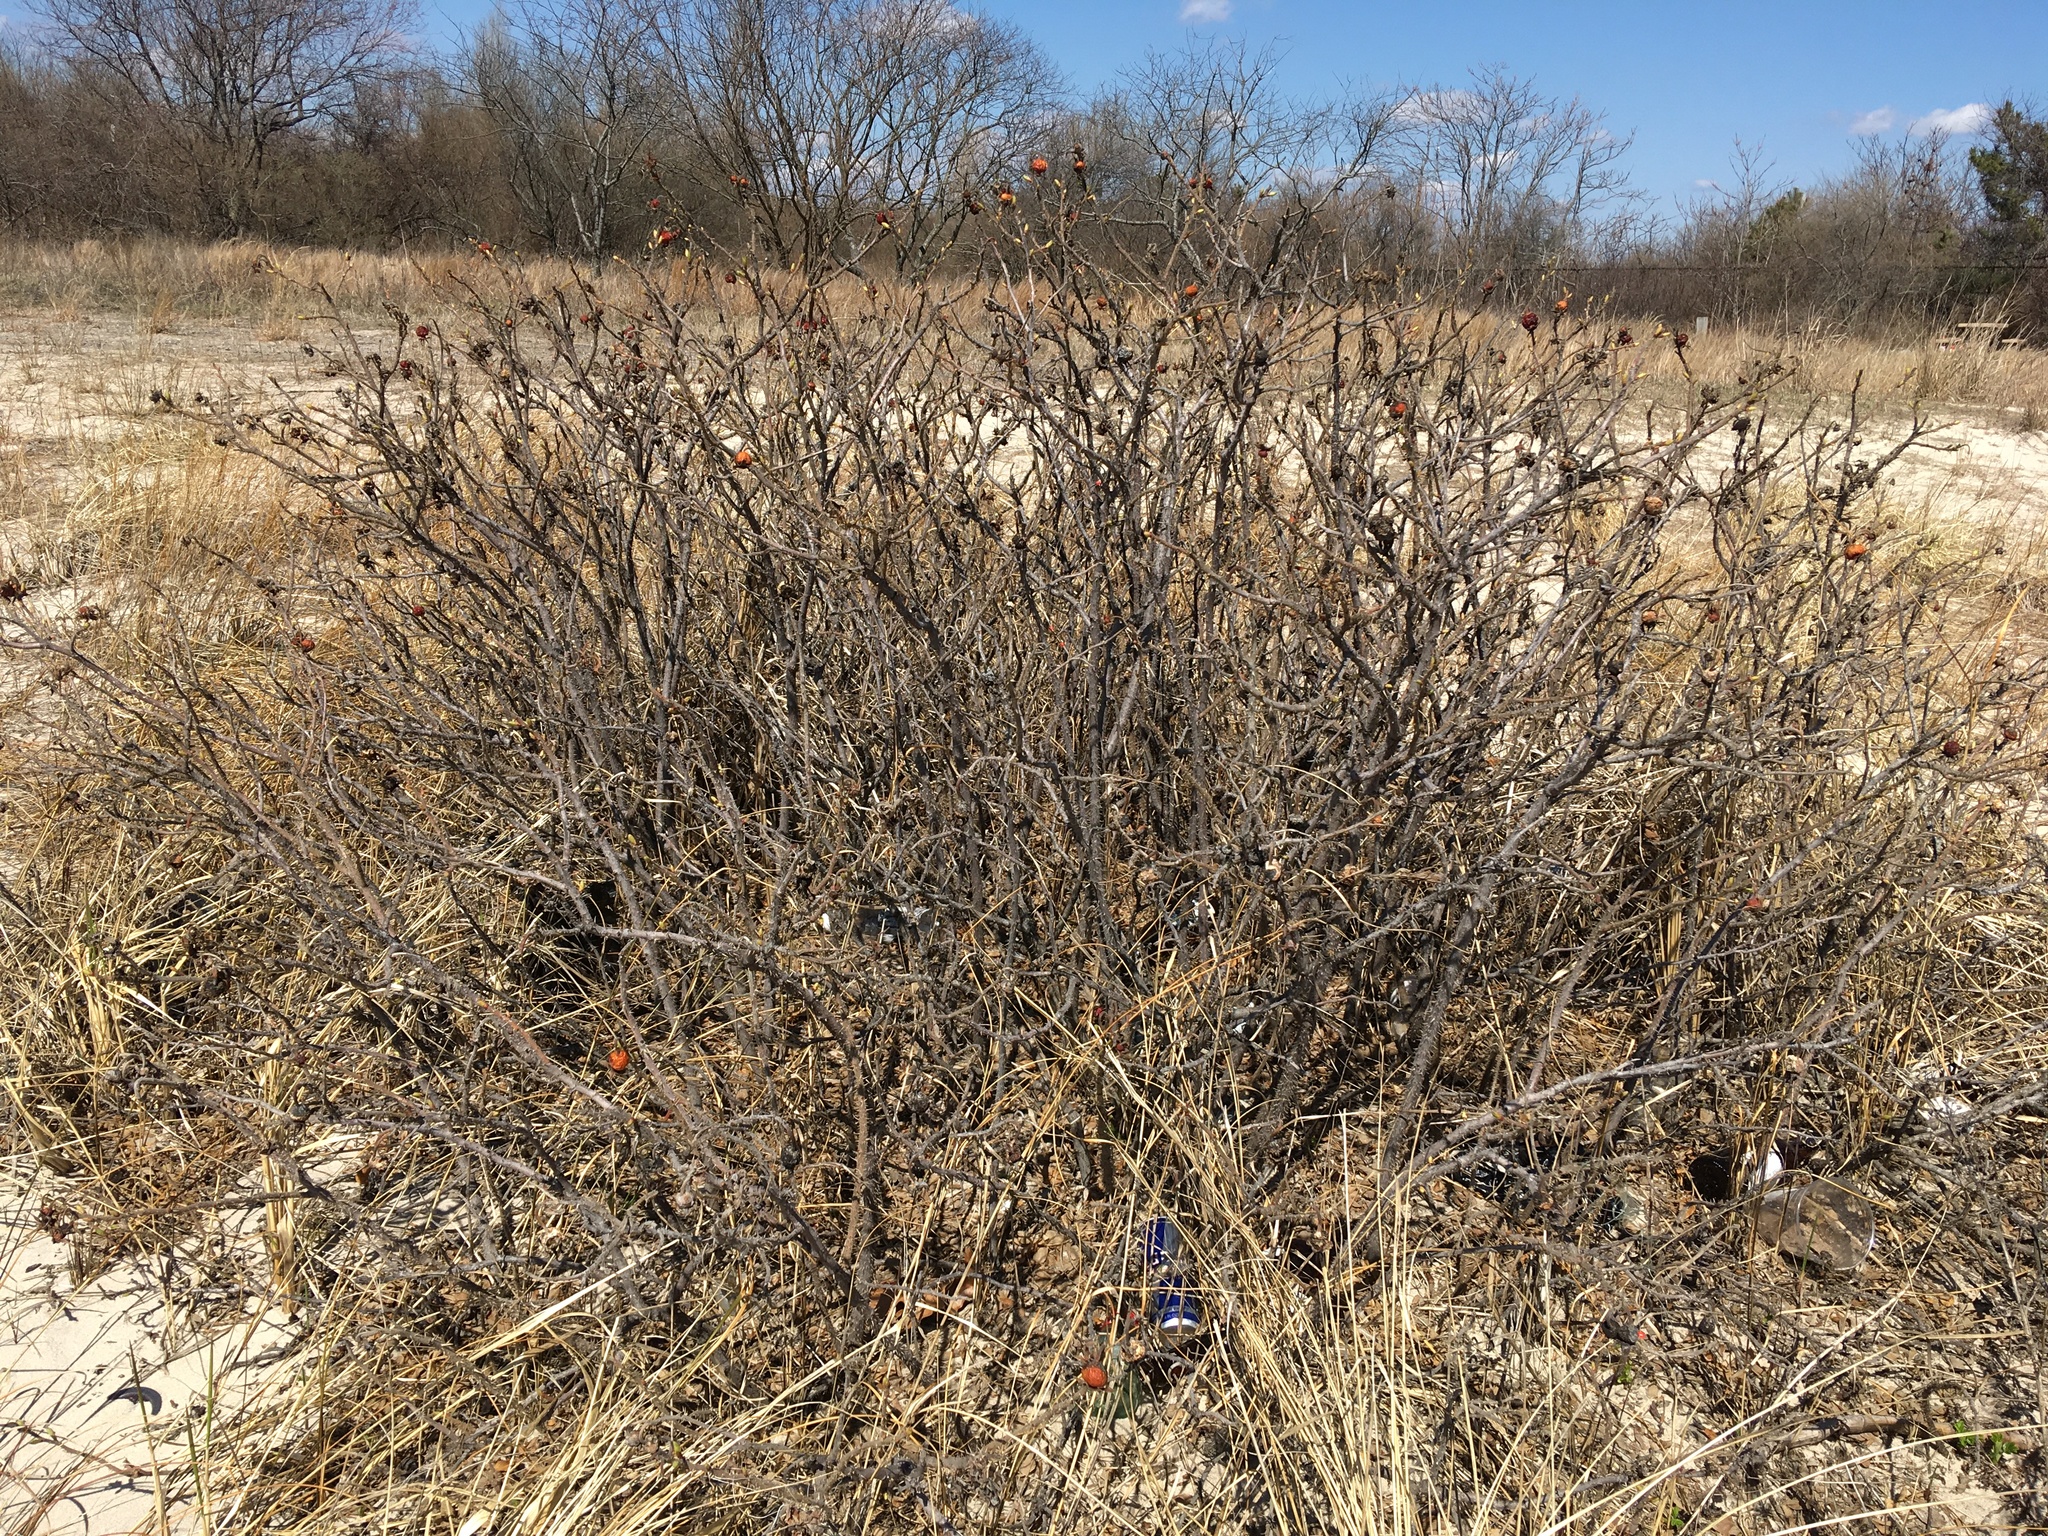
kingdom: Plantae
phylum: Tracheophyta
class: Magnoliopsida
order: Rosales
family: Rosaceae
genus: Rosa
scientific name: Rosa rugosa
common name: Japanese rose
